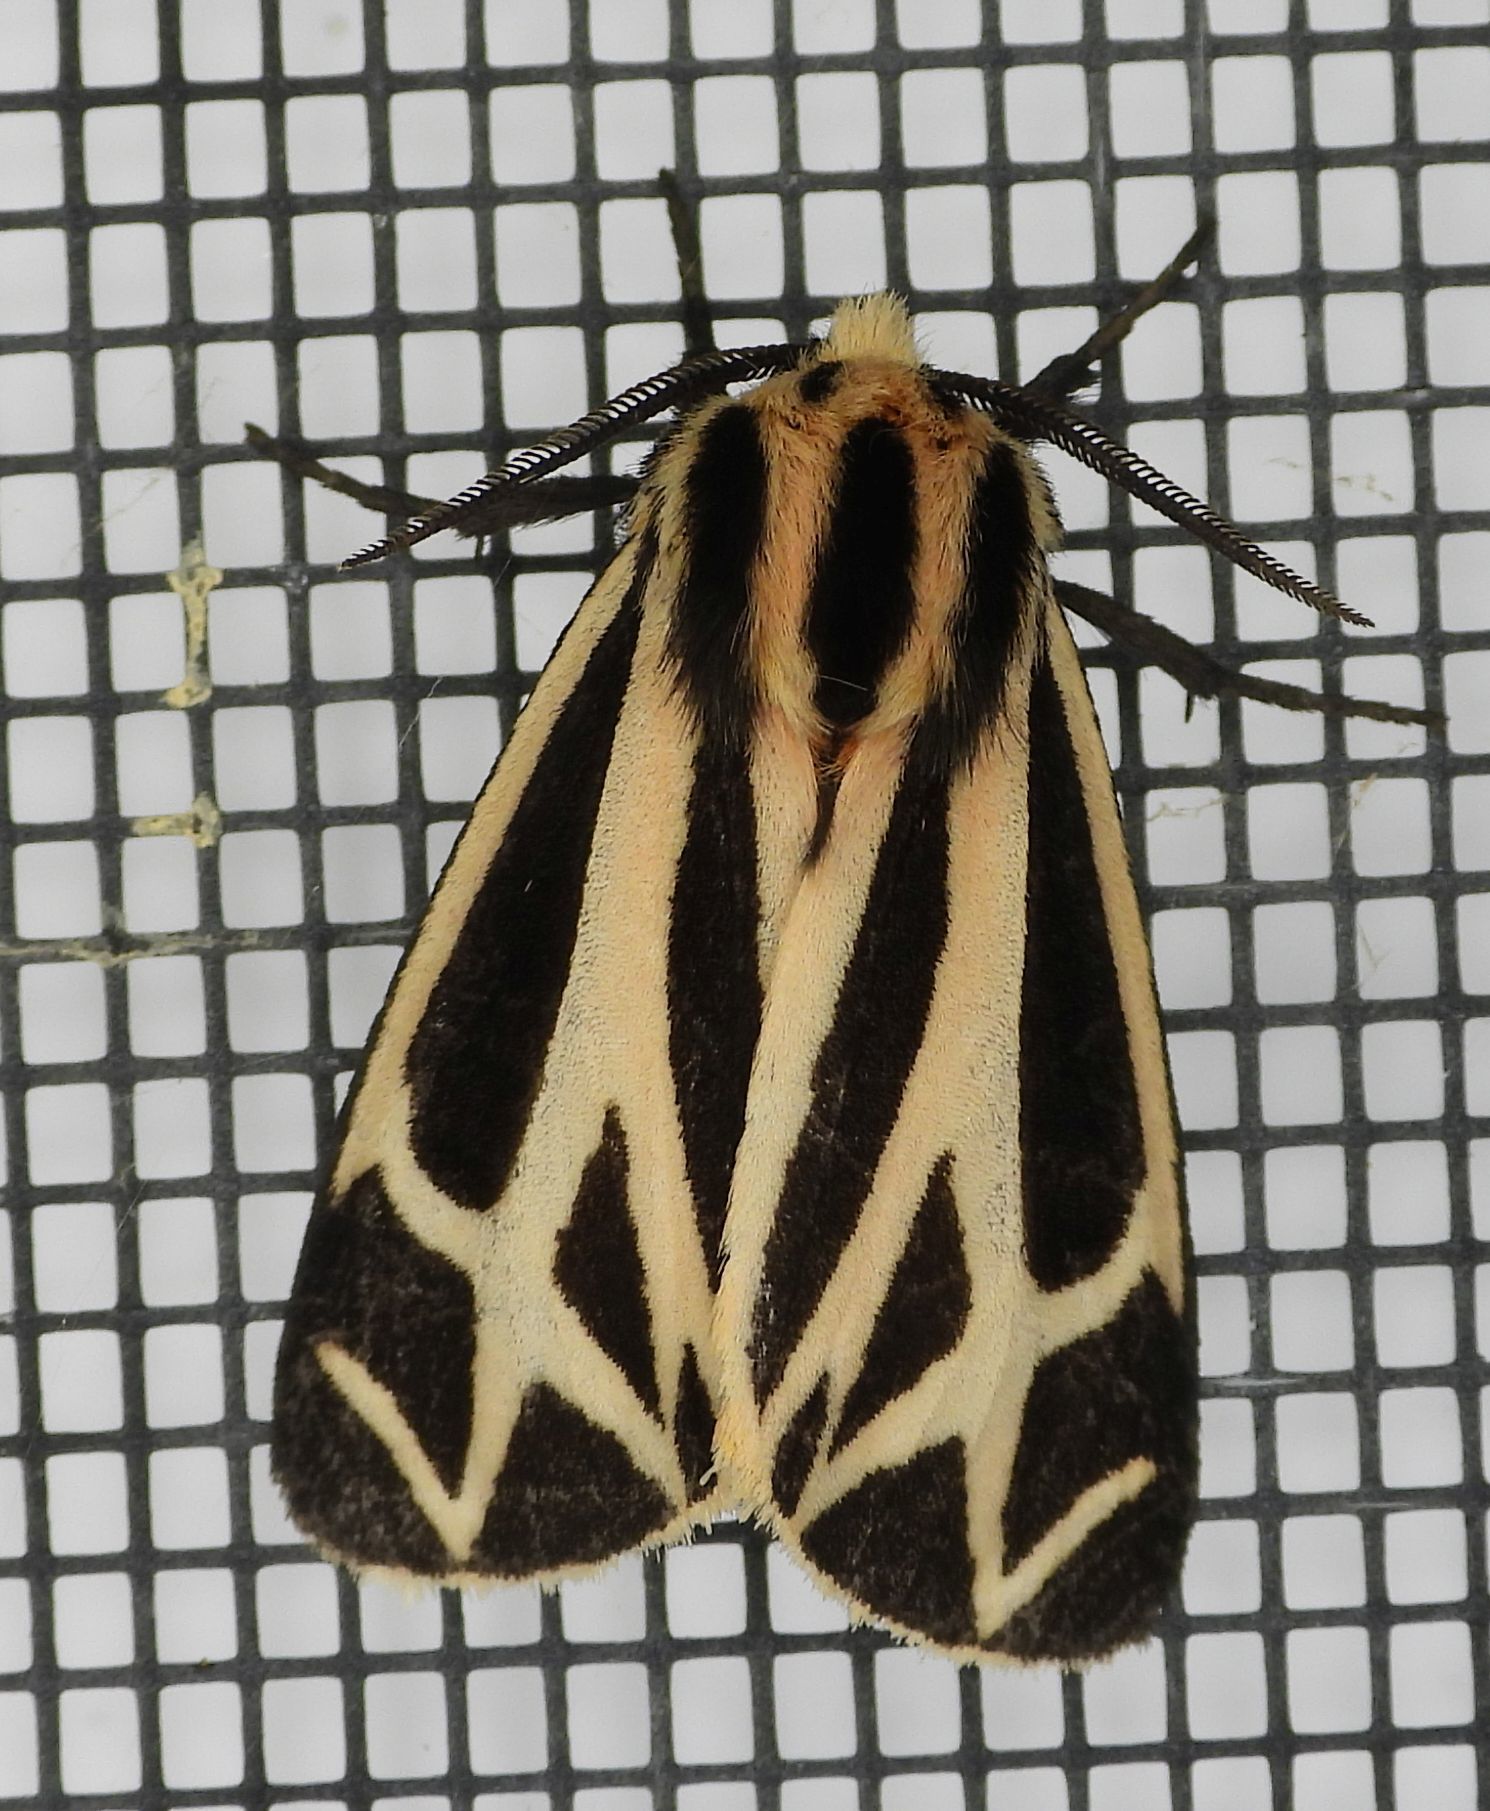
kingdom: Animalia
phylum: Arthropoda
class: Insecta
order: Lepidoptera
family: Erebidae
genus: Apantesis
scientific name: Apantesis phalerata
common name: Harnessed tiger moth
